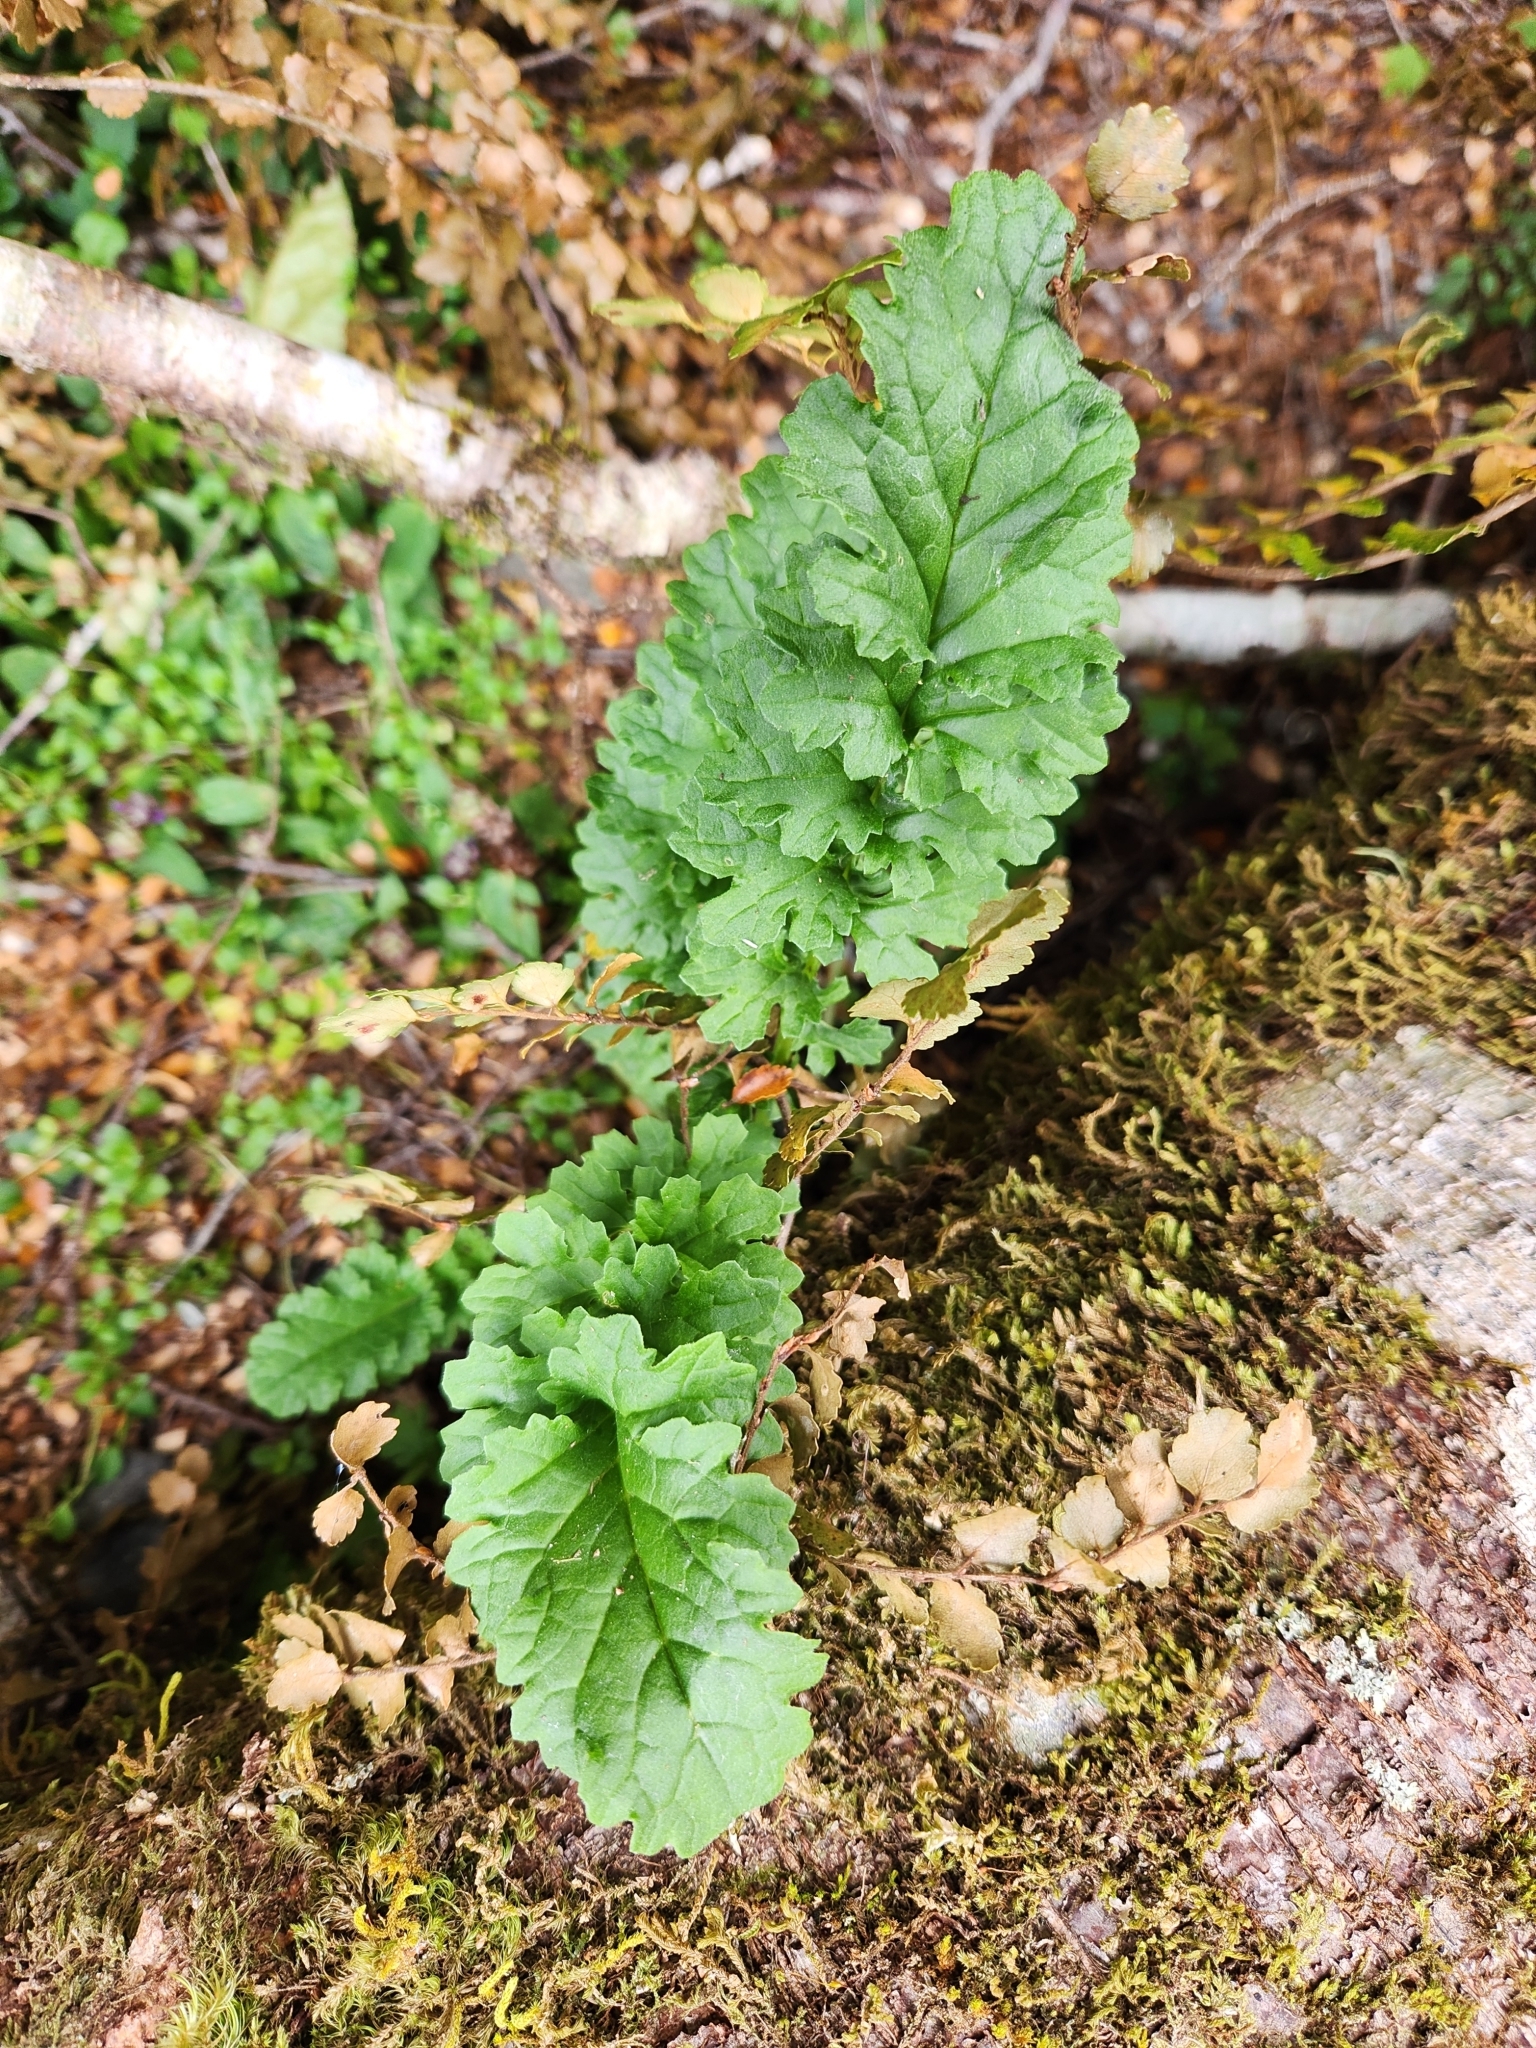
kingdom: Plantae
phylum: Tracheophyta
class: Magnoliopsida
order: Asterales
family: Asteraceae
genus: Jacobaea
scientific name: Jacobaea vulgaris
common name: Stinking willie
